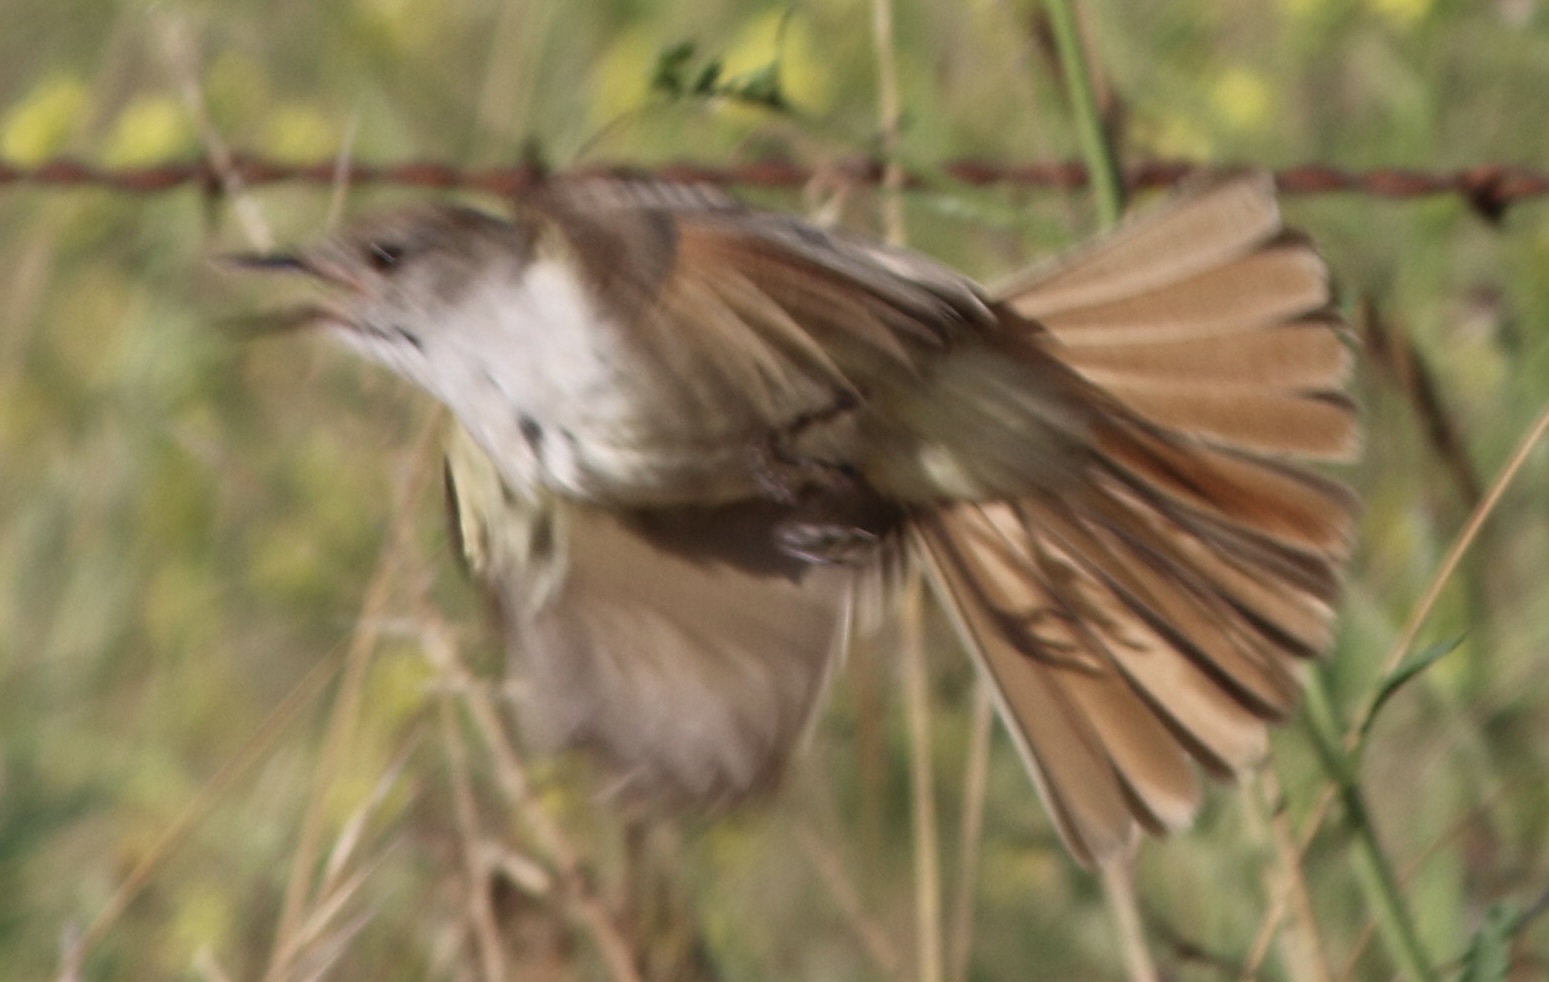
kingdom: Animalia
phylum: Chordata
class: Aves
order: Passeriformes
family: Tyrannidae
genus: Myiarchus
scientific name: Myiarchus cinerascens
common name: Ash-throated flycatcher
